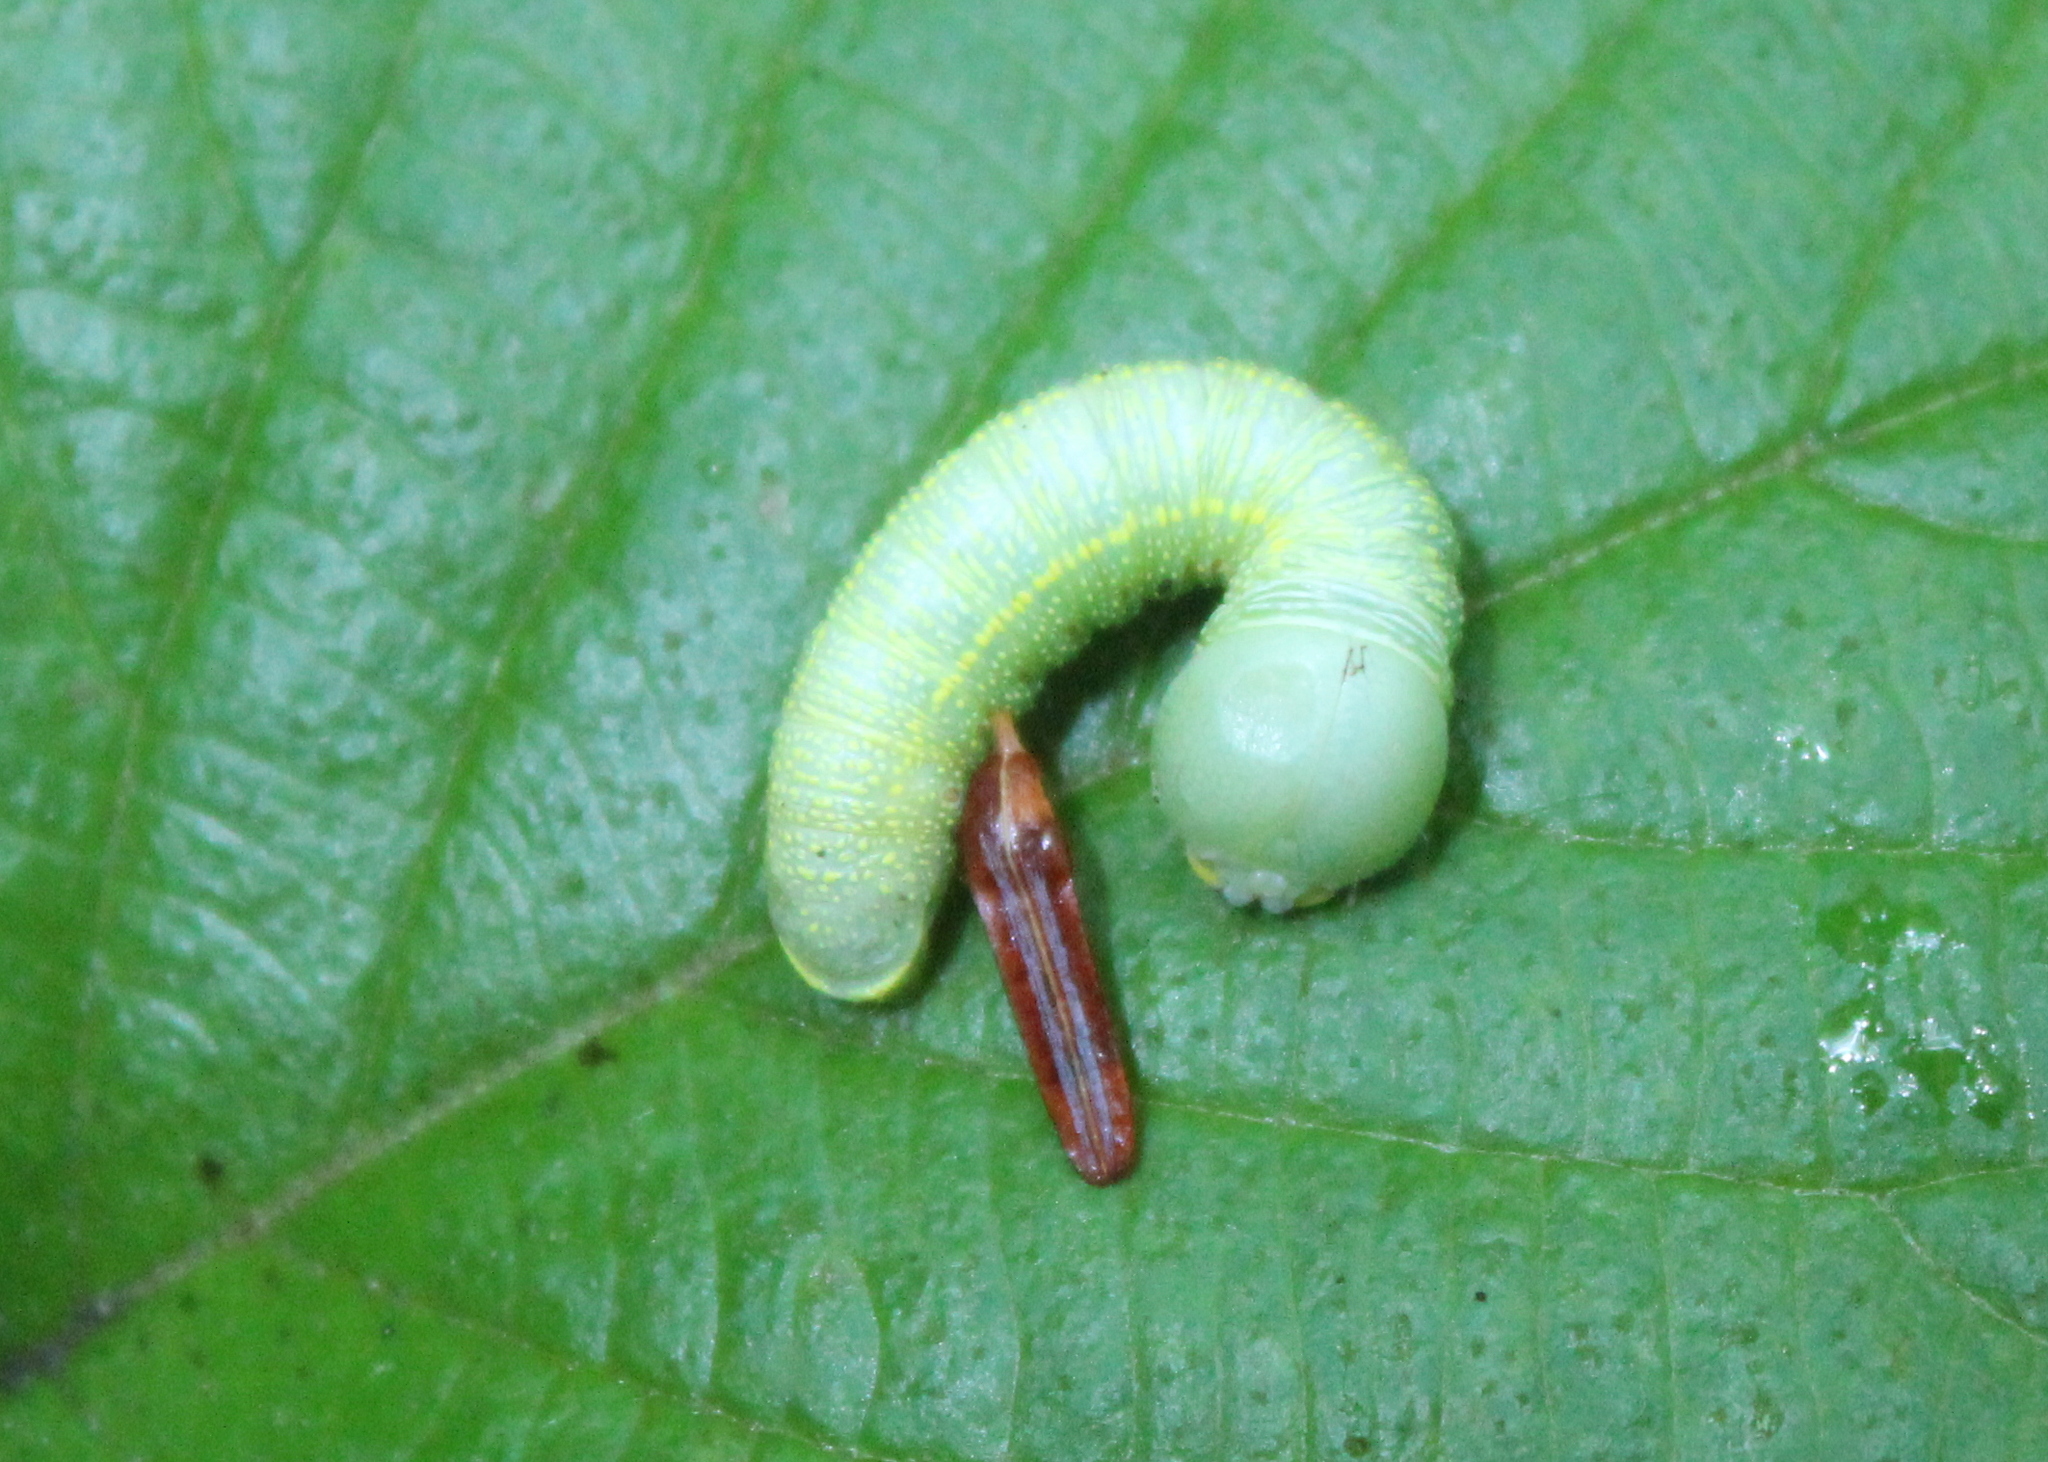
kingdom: Animalia
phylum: Arthropoda
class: Insecta
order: Lepidoptera
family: Notodontidae
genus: Nadata
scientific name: Nadata gibbosa
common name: White-dotted prominent
